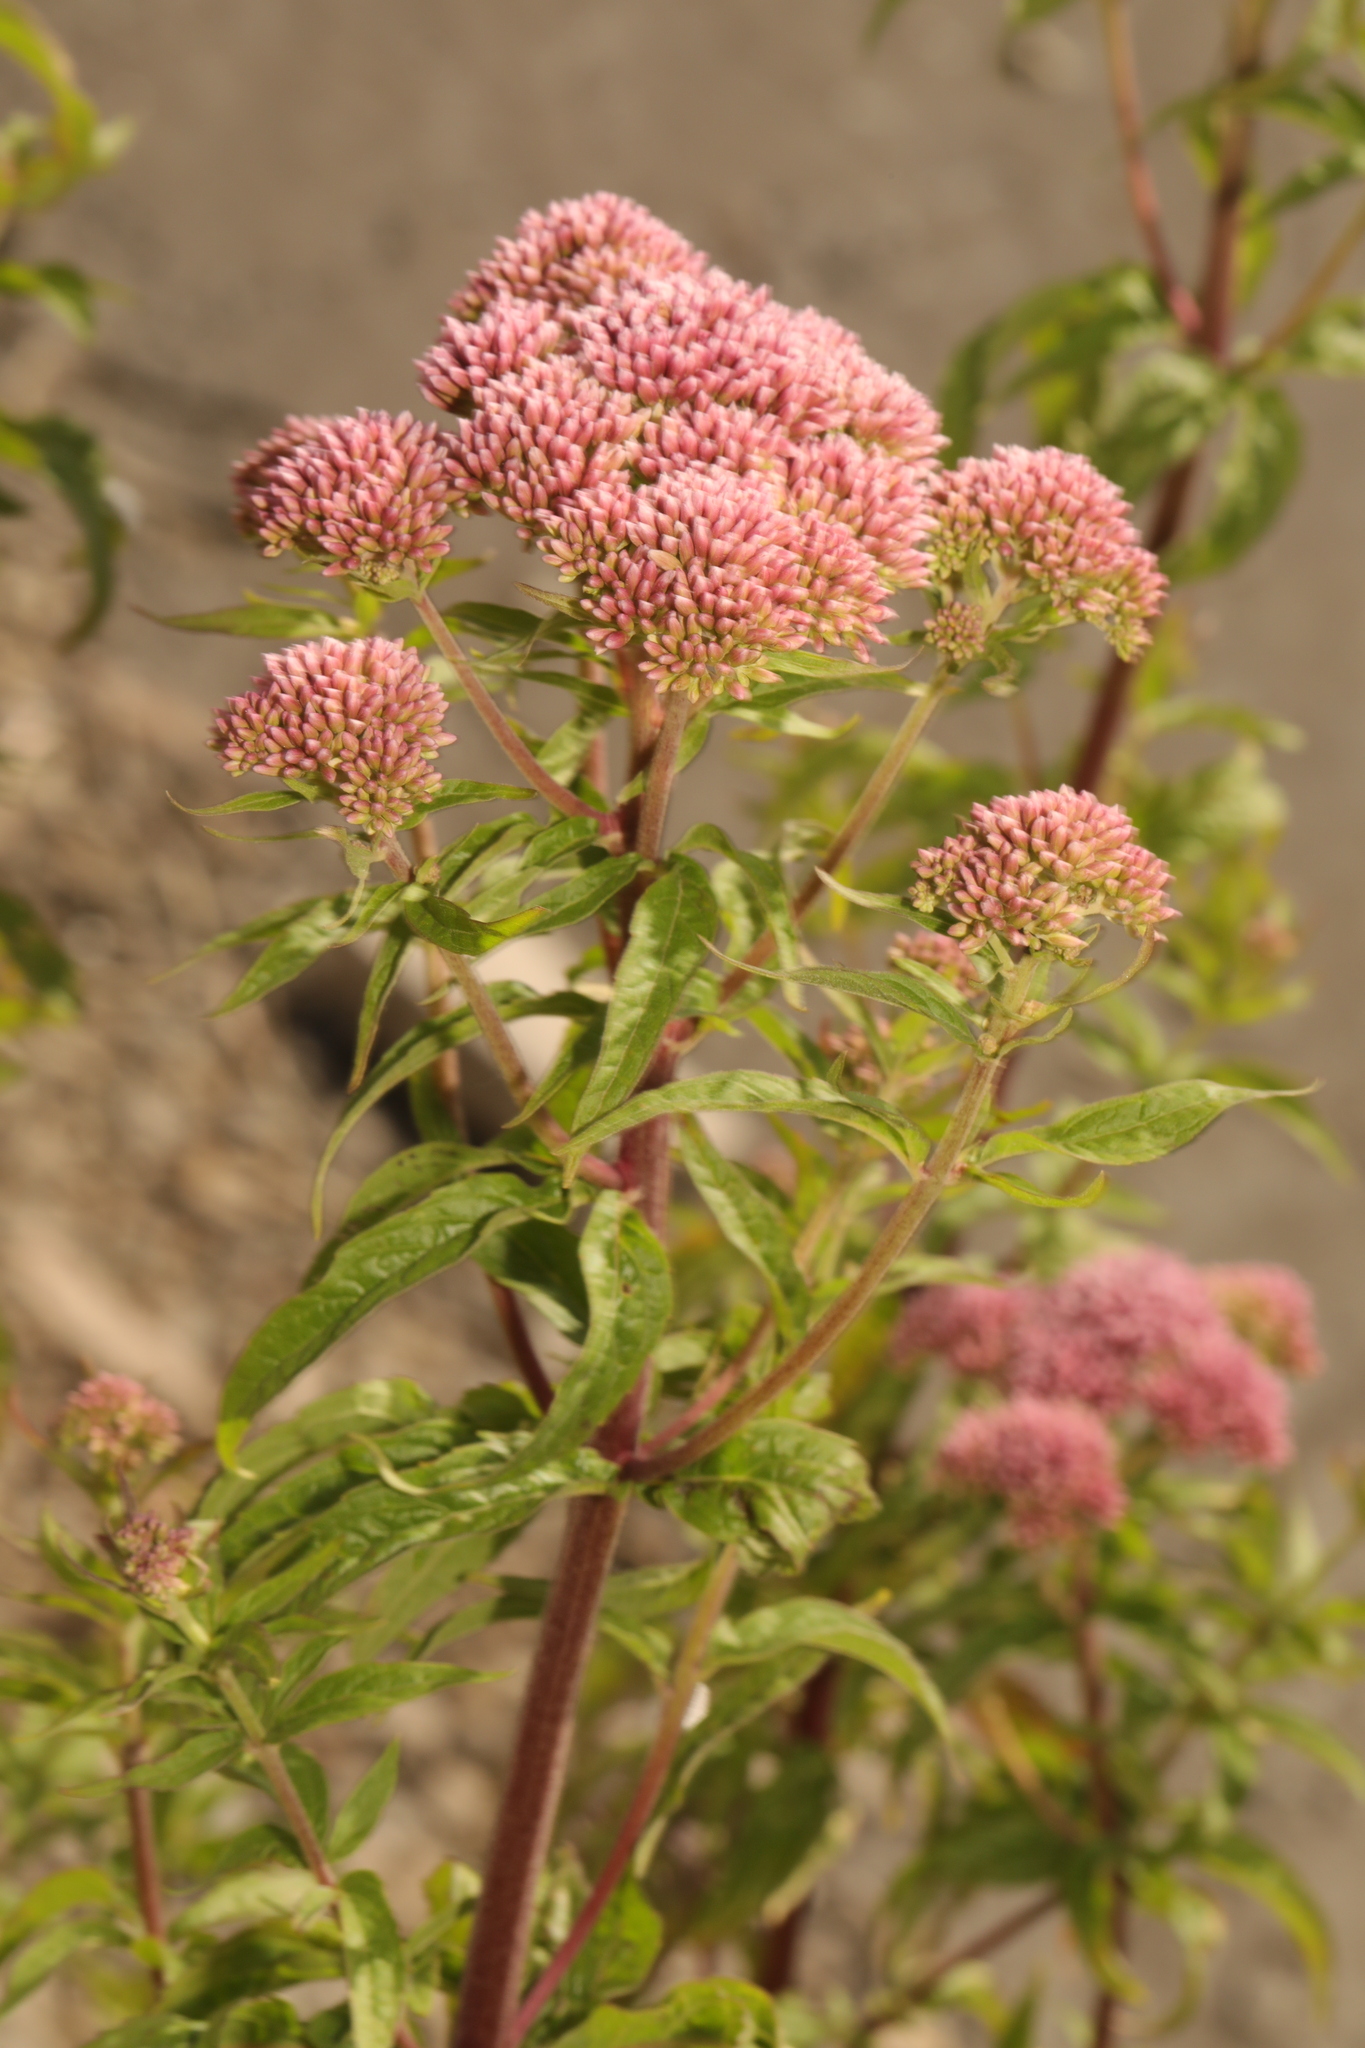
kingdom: Plantae
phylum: Tracheophyta
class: Magnoliopsida
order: Asterales
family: Asteraceae
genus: Eupatorium
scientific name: Eupatorium cannabinum
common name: Hemp-agrimony
